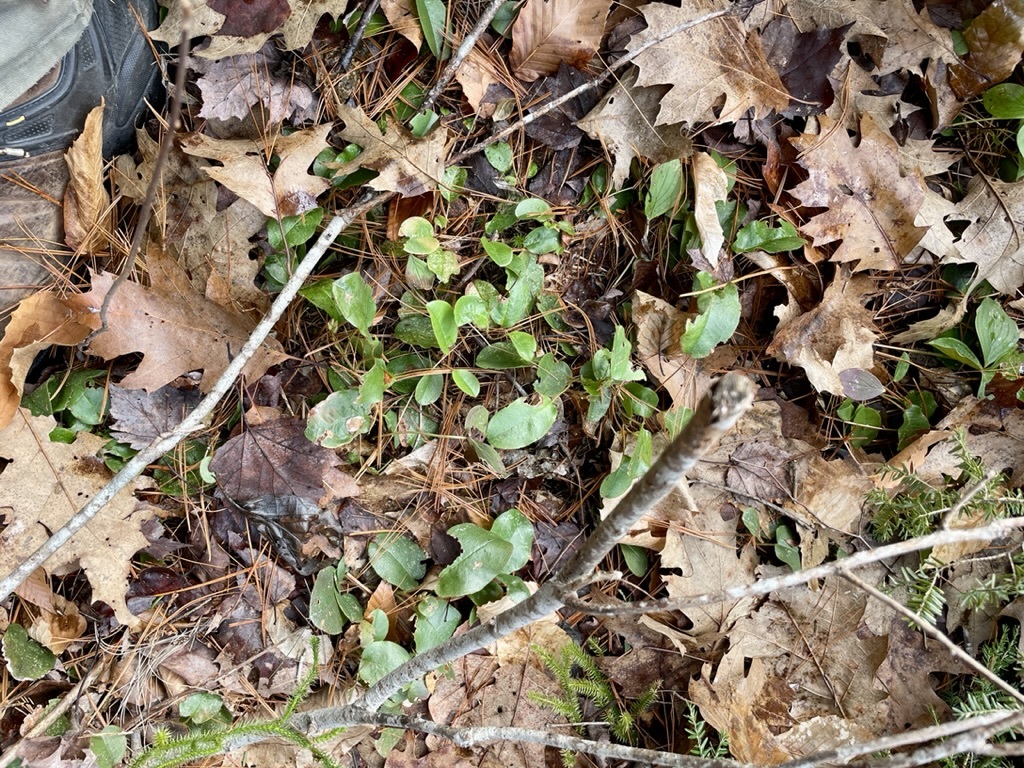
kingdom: Plantae
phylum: Tracheophyta
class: Magnoliopsida
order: Ericales
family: Ericaceae
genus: Epigaea
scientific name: Epigaea repens
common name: Gravelroot
